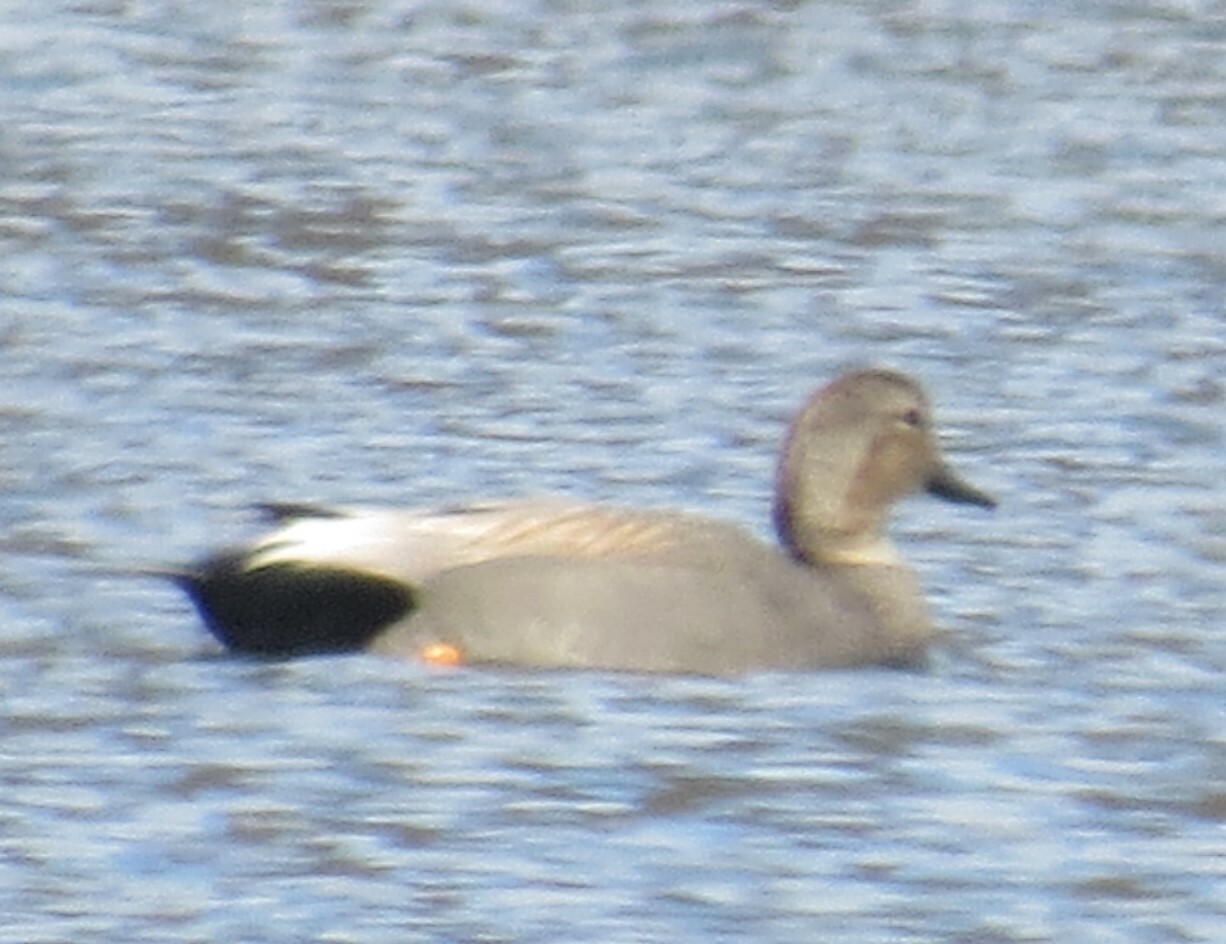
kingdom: Animalia
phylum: Chordata
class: Aves
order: Anseriformes
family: Anatidae
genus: Mareca
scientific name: Mareca strepera
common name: Gadwall
